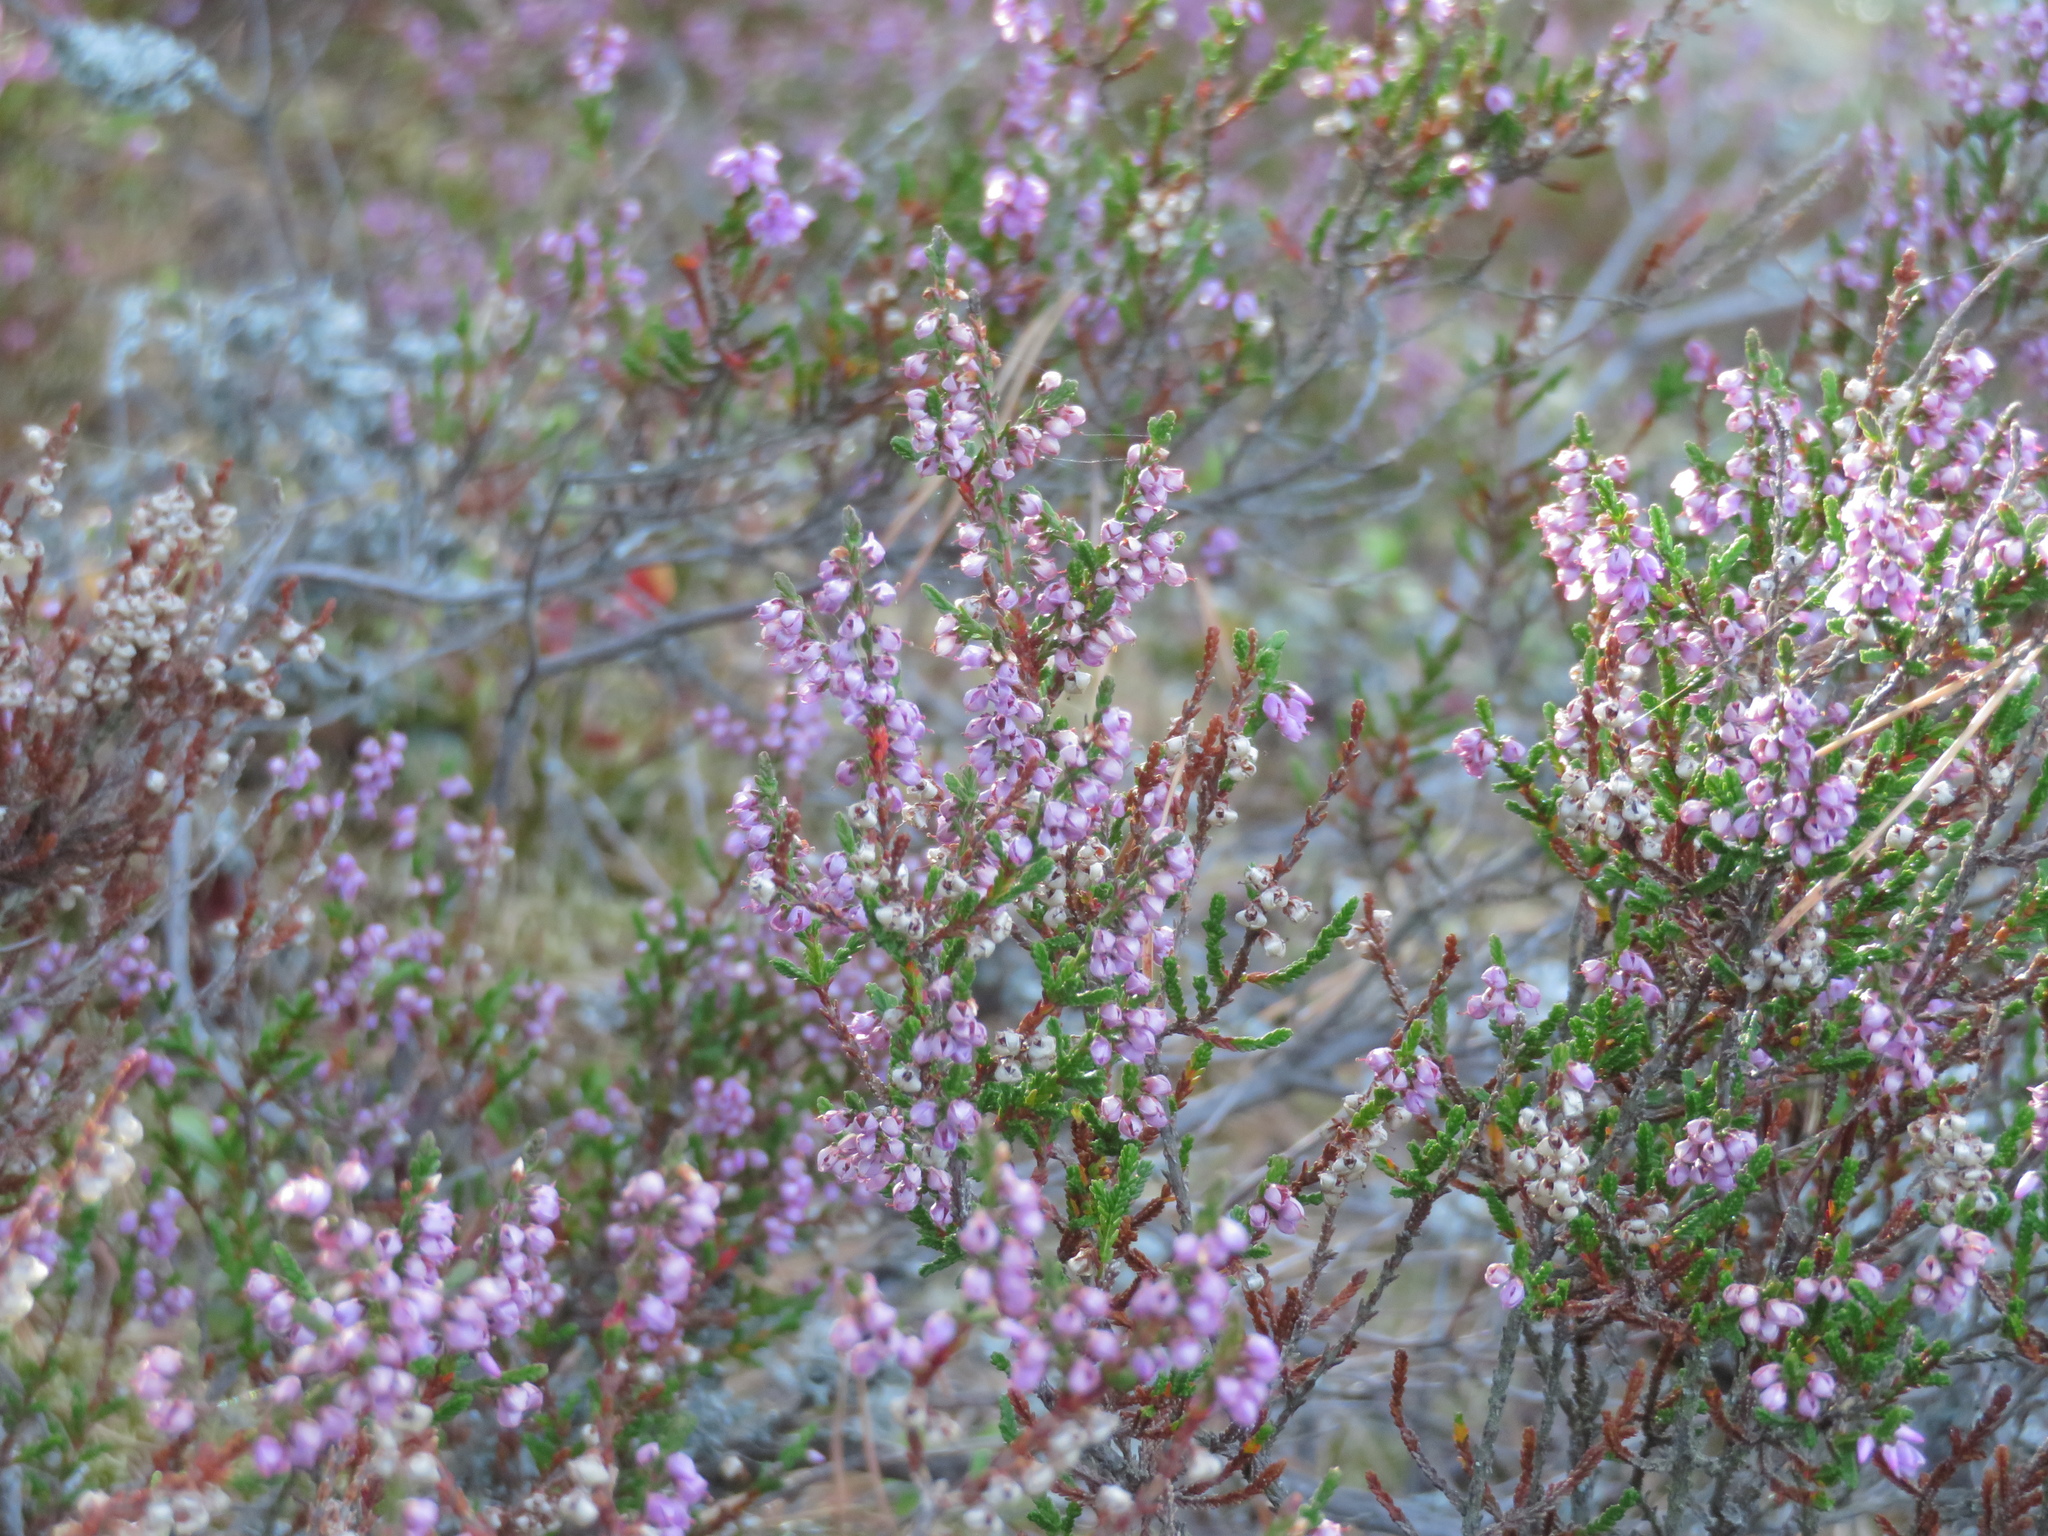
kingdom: Plantae
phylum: Tracheophyta
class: Magnoliopsida
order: Ericales
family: Ericaceae
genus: Calluna
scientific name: Calluna vulgaris
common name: Heather
